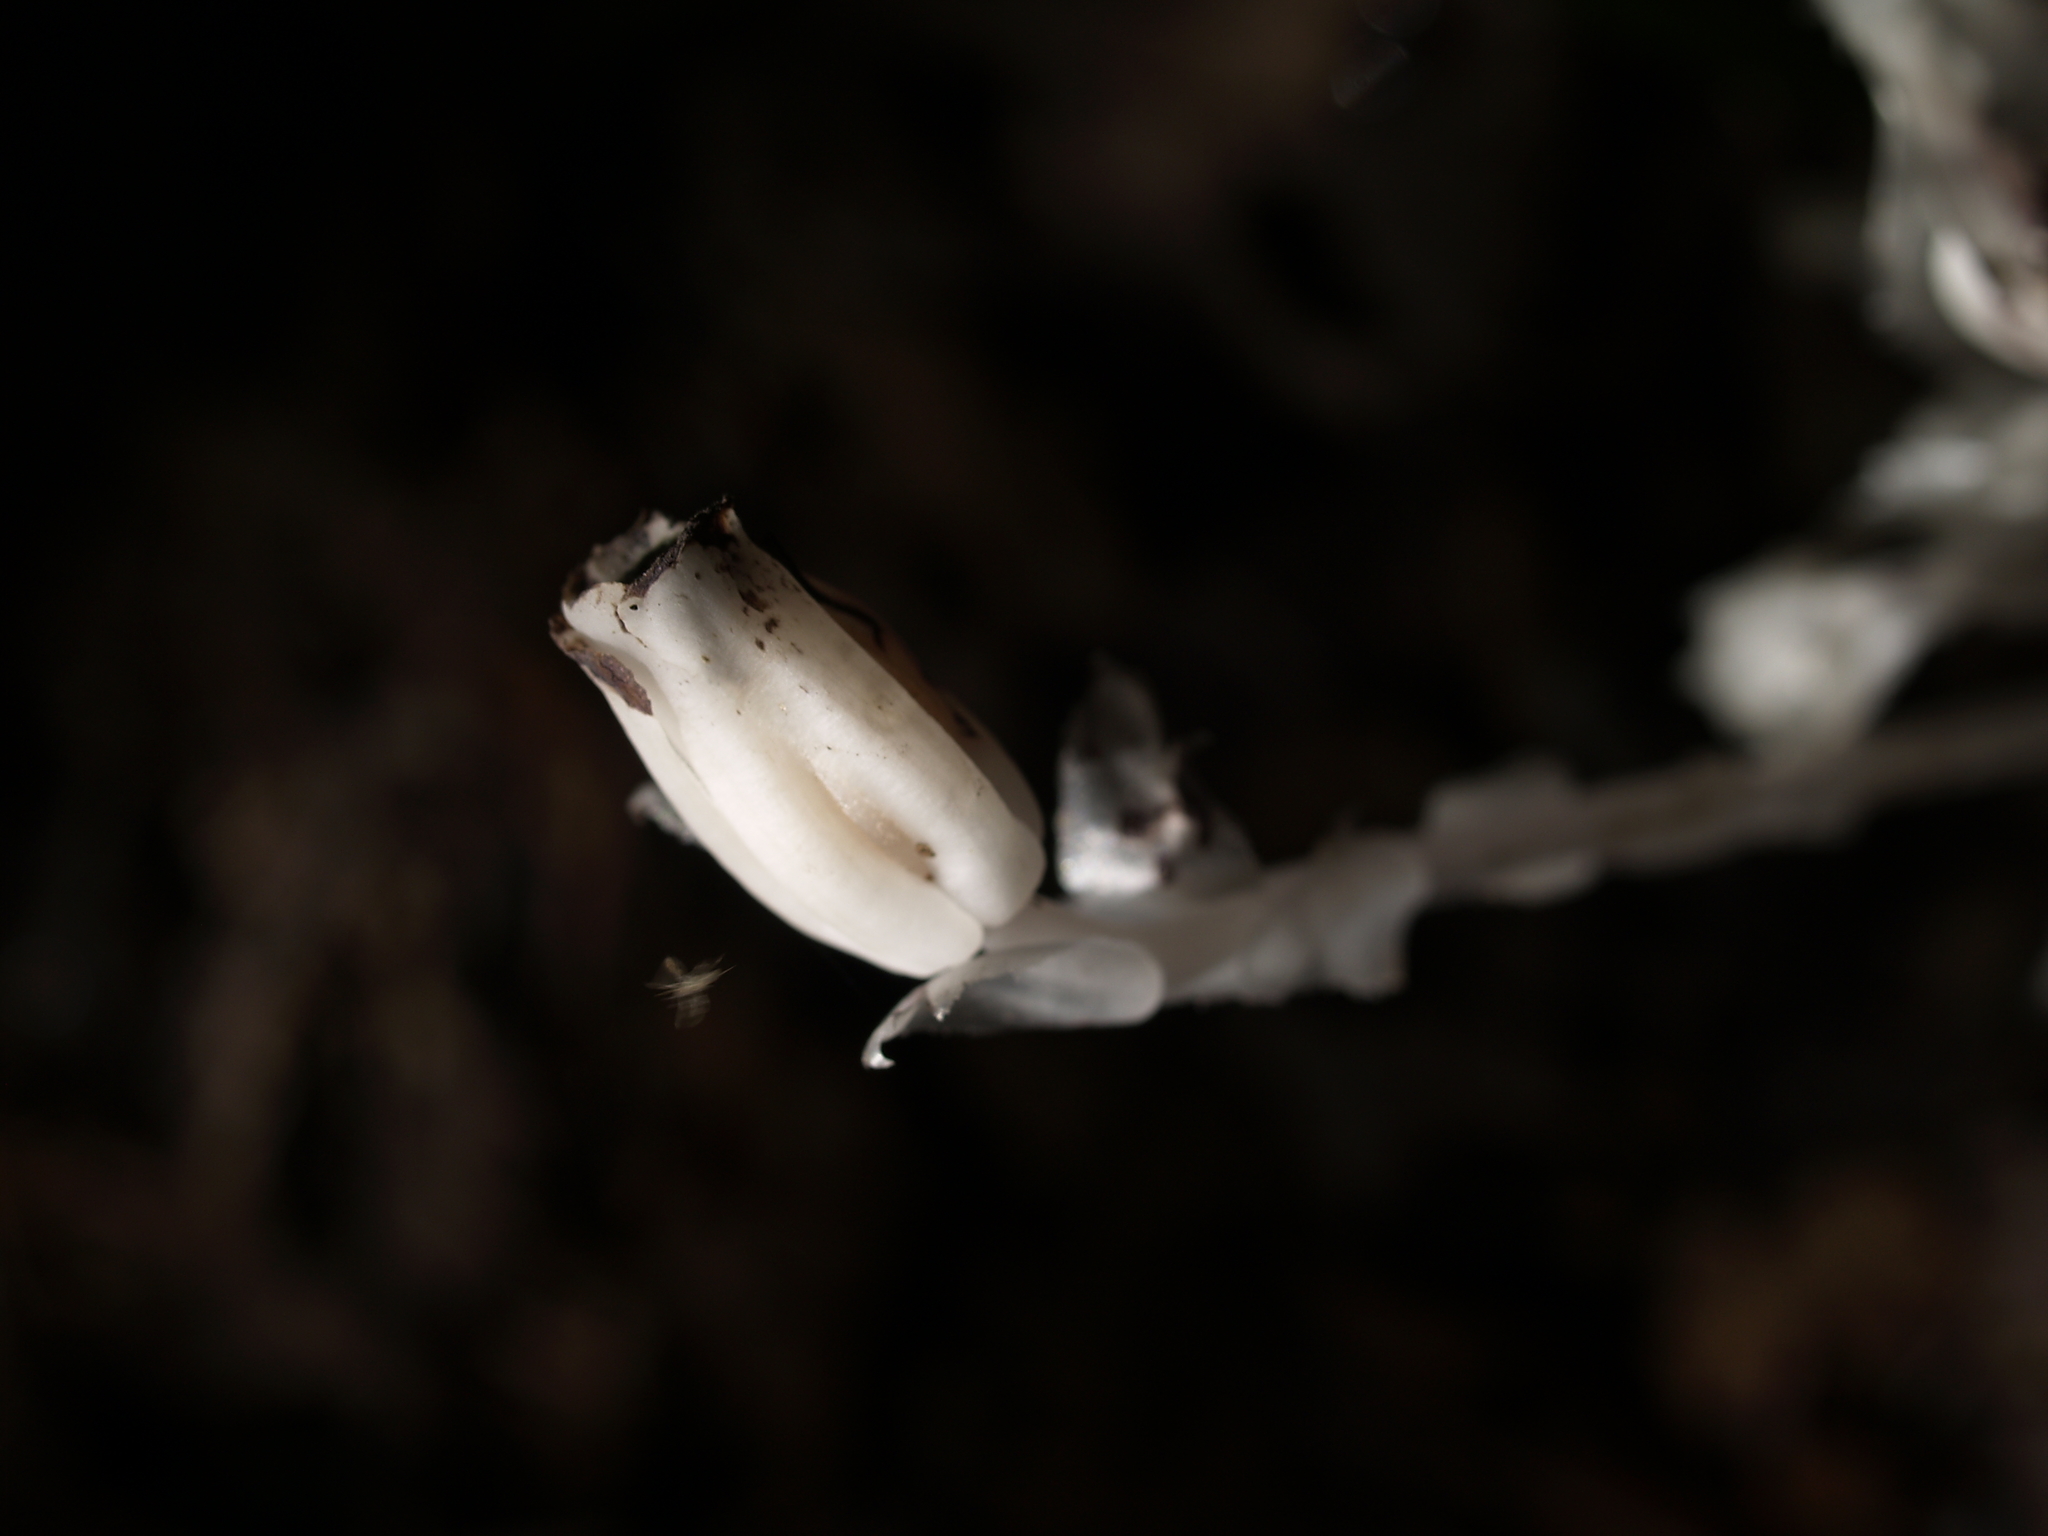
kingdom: Plantae
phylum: Tracheophyta
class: Magnoliopsida
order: Ericales
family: Ericaceae
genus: Monotropa
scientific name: Monotropa uniflora
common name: Convulsion root
